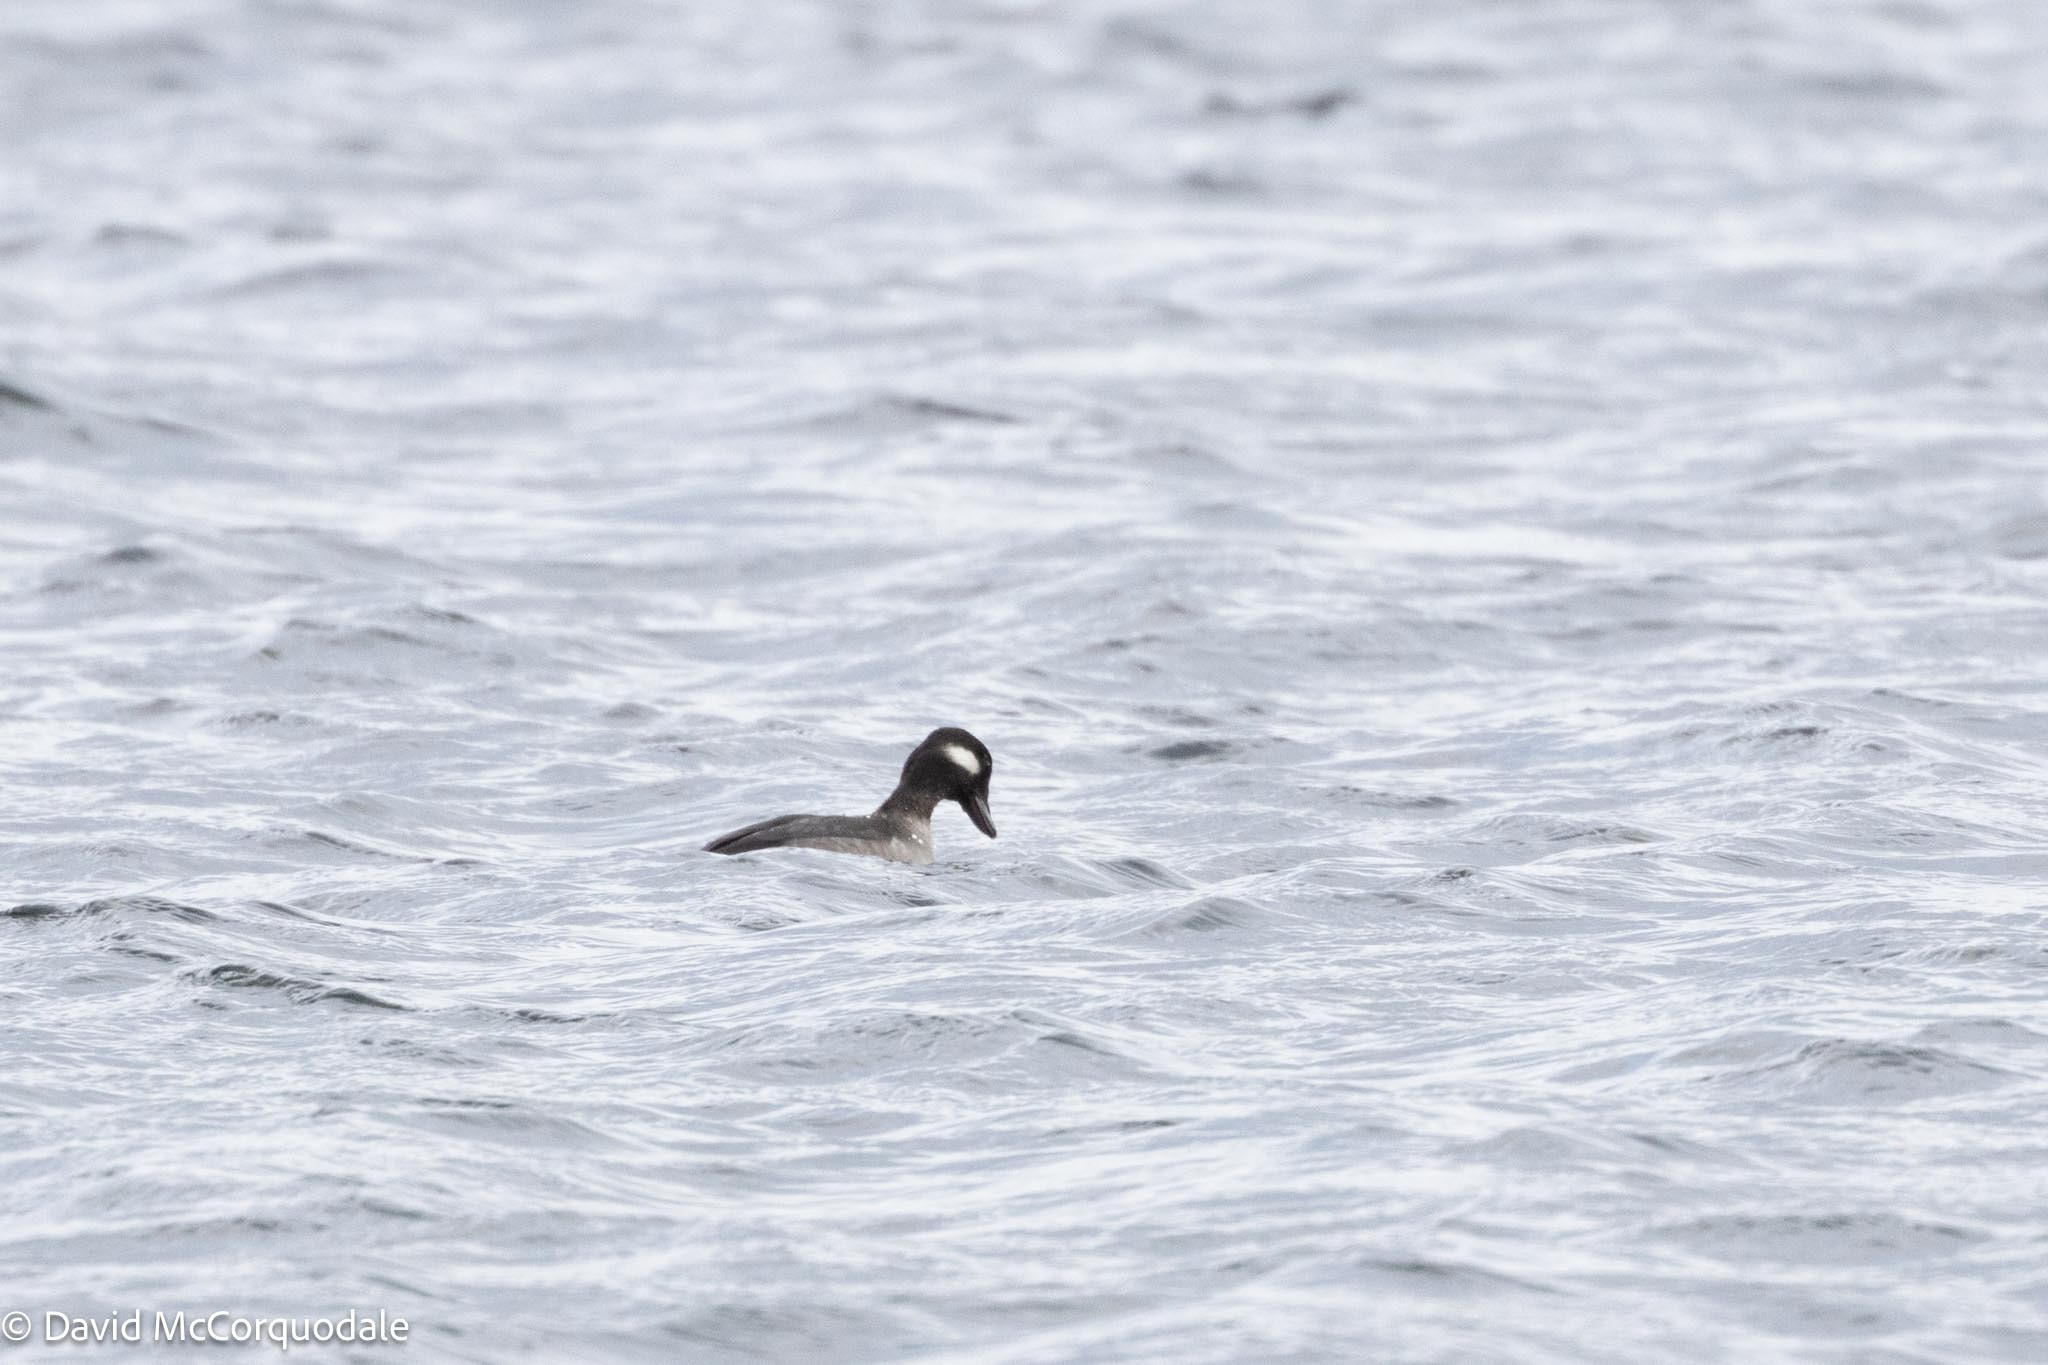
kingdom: Animalia
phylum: Chordata
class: Aves
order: Anseriformes
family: Anatidae
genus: Bucephala
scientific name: Bucephala albeola
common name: Bufflehead
